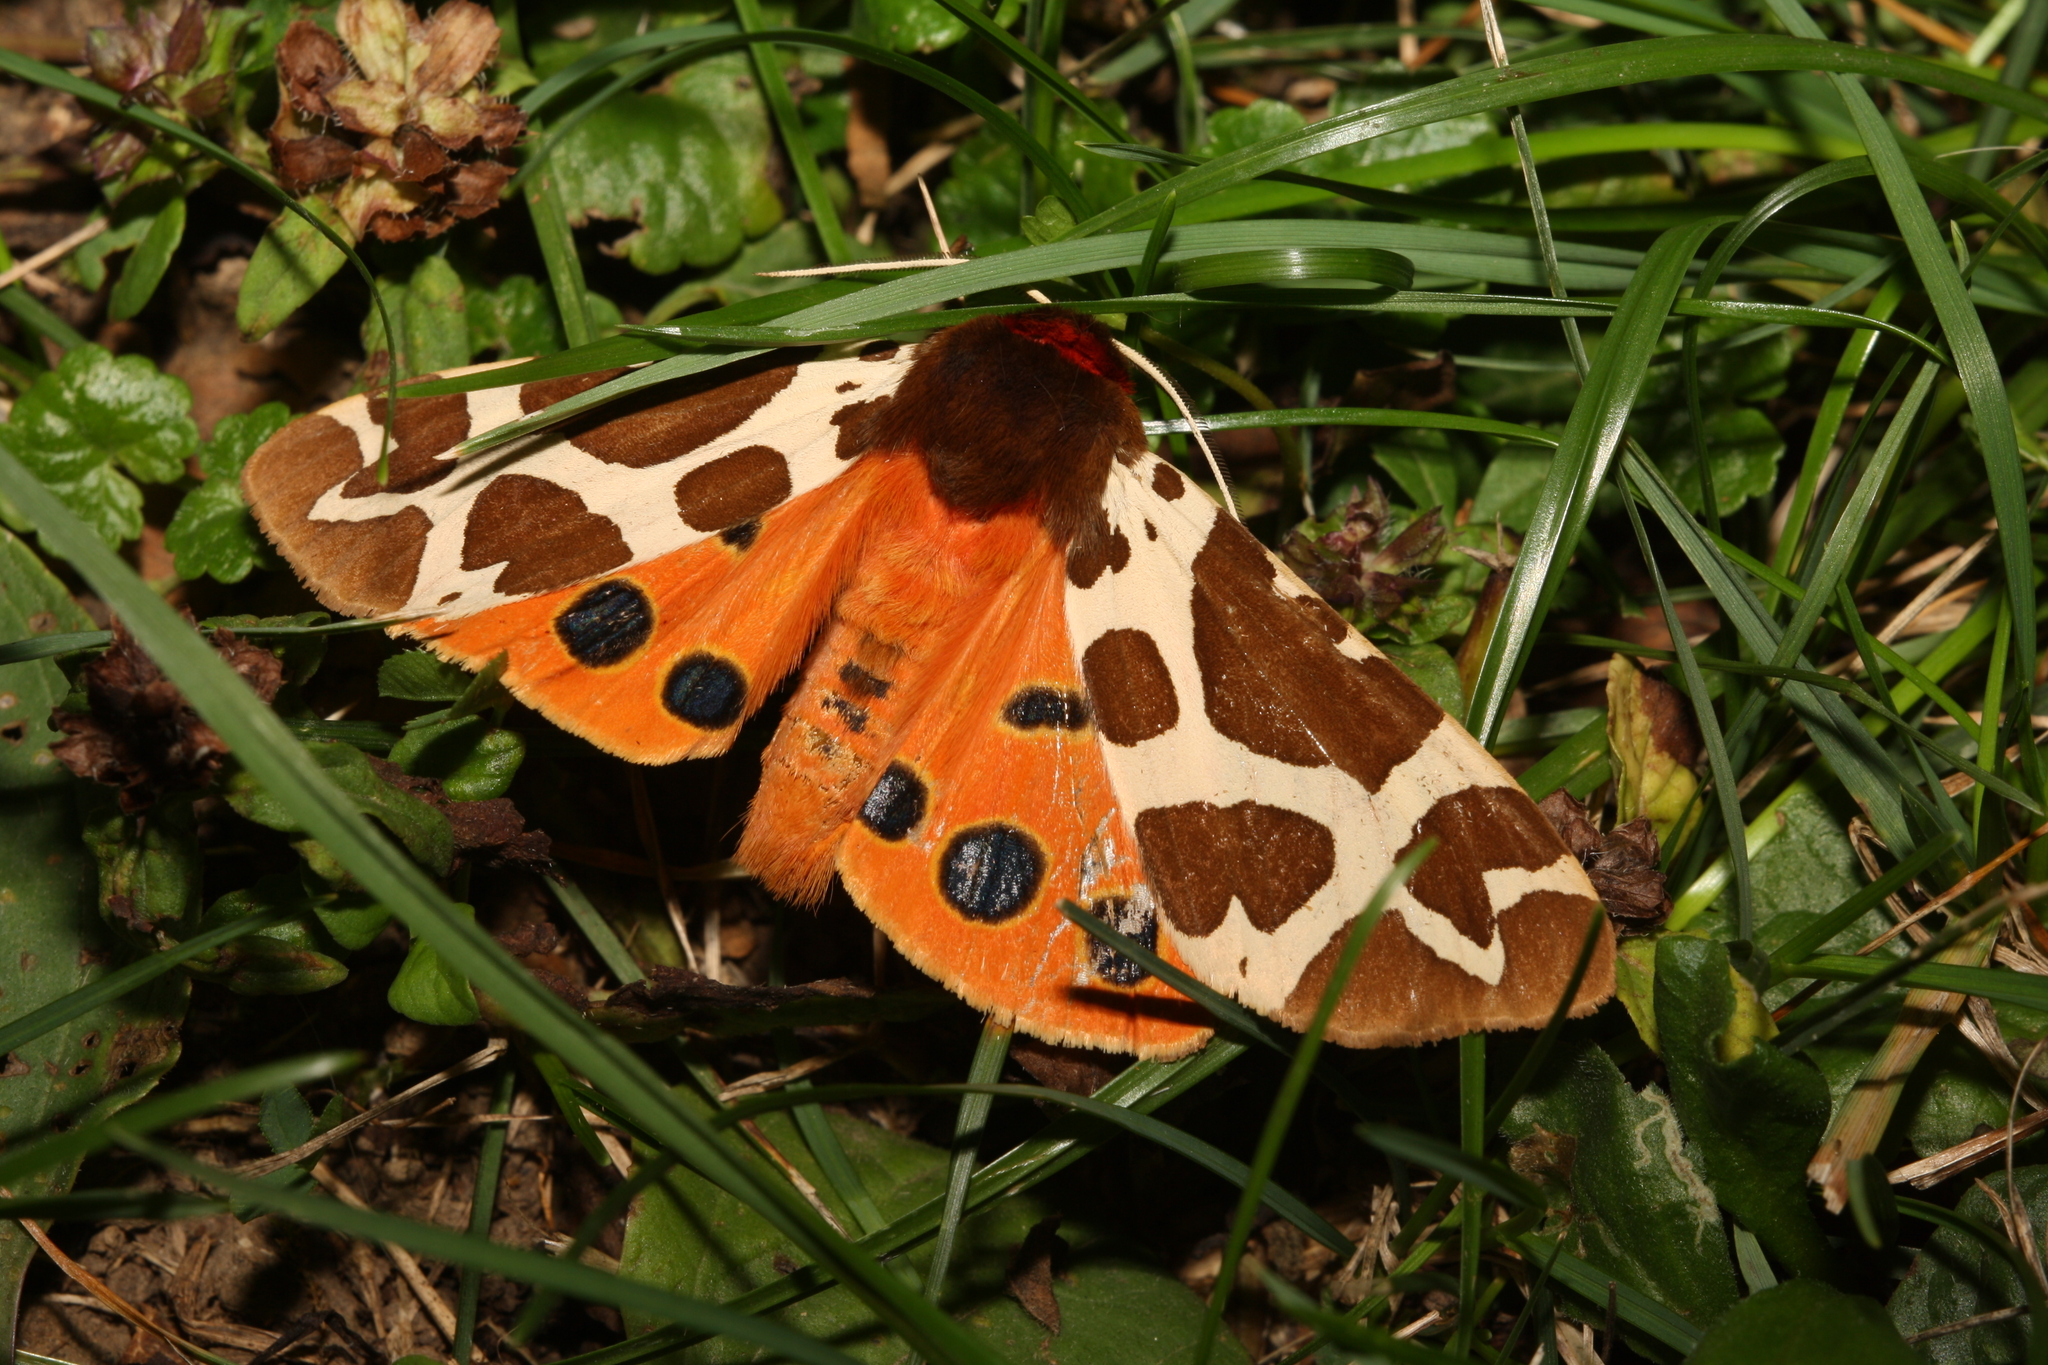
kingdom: Animalia
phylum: Arthropoda
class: Insecta
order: Lepidoptera
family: Erebidae
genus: Arctia
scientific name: Arctia caja
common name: Garden tiger
